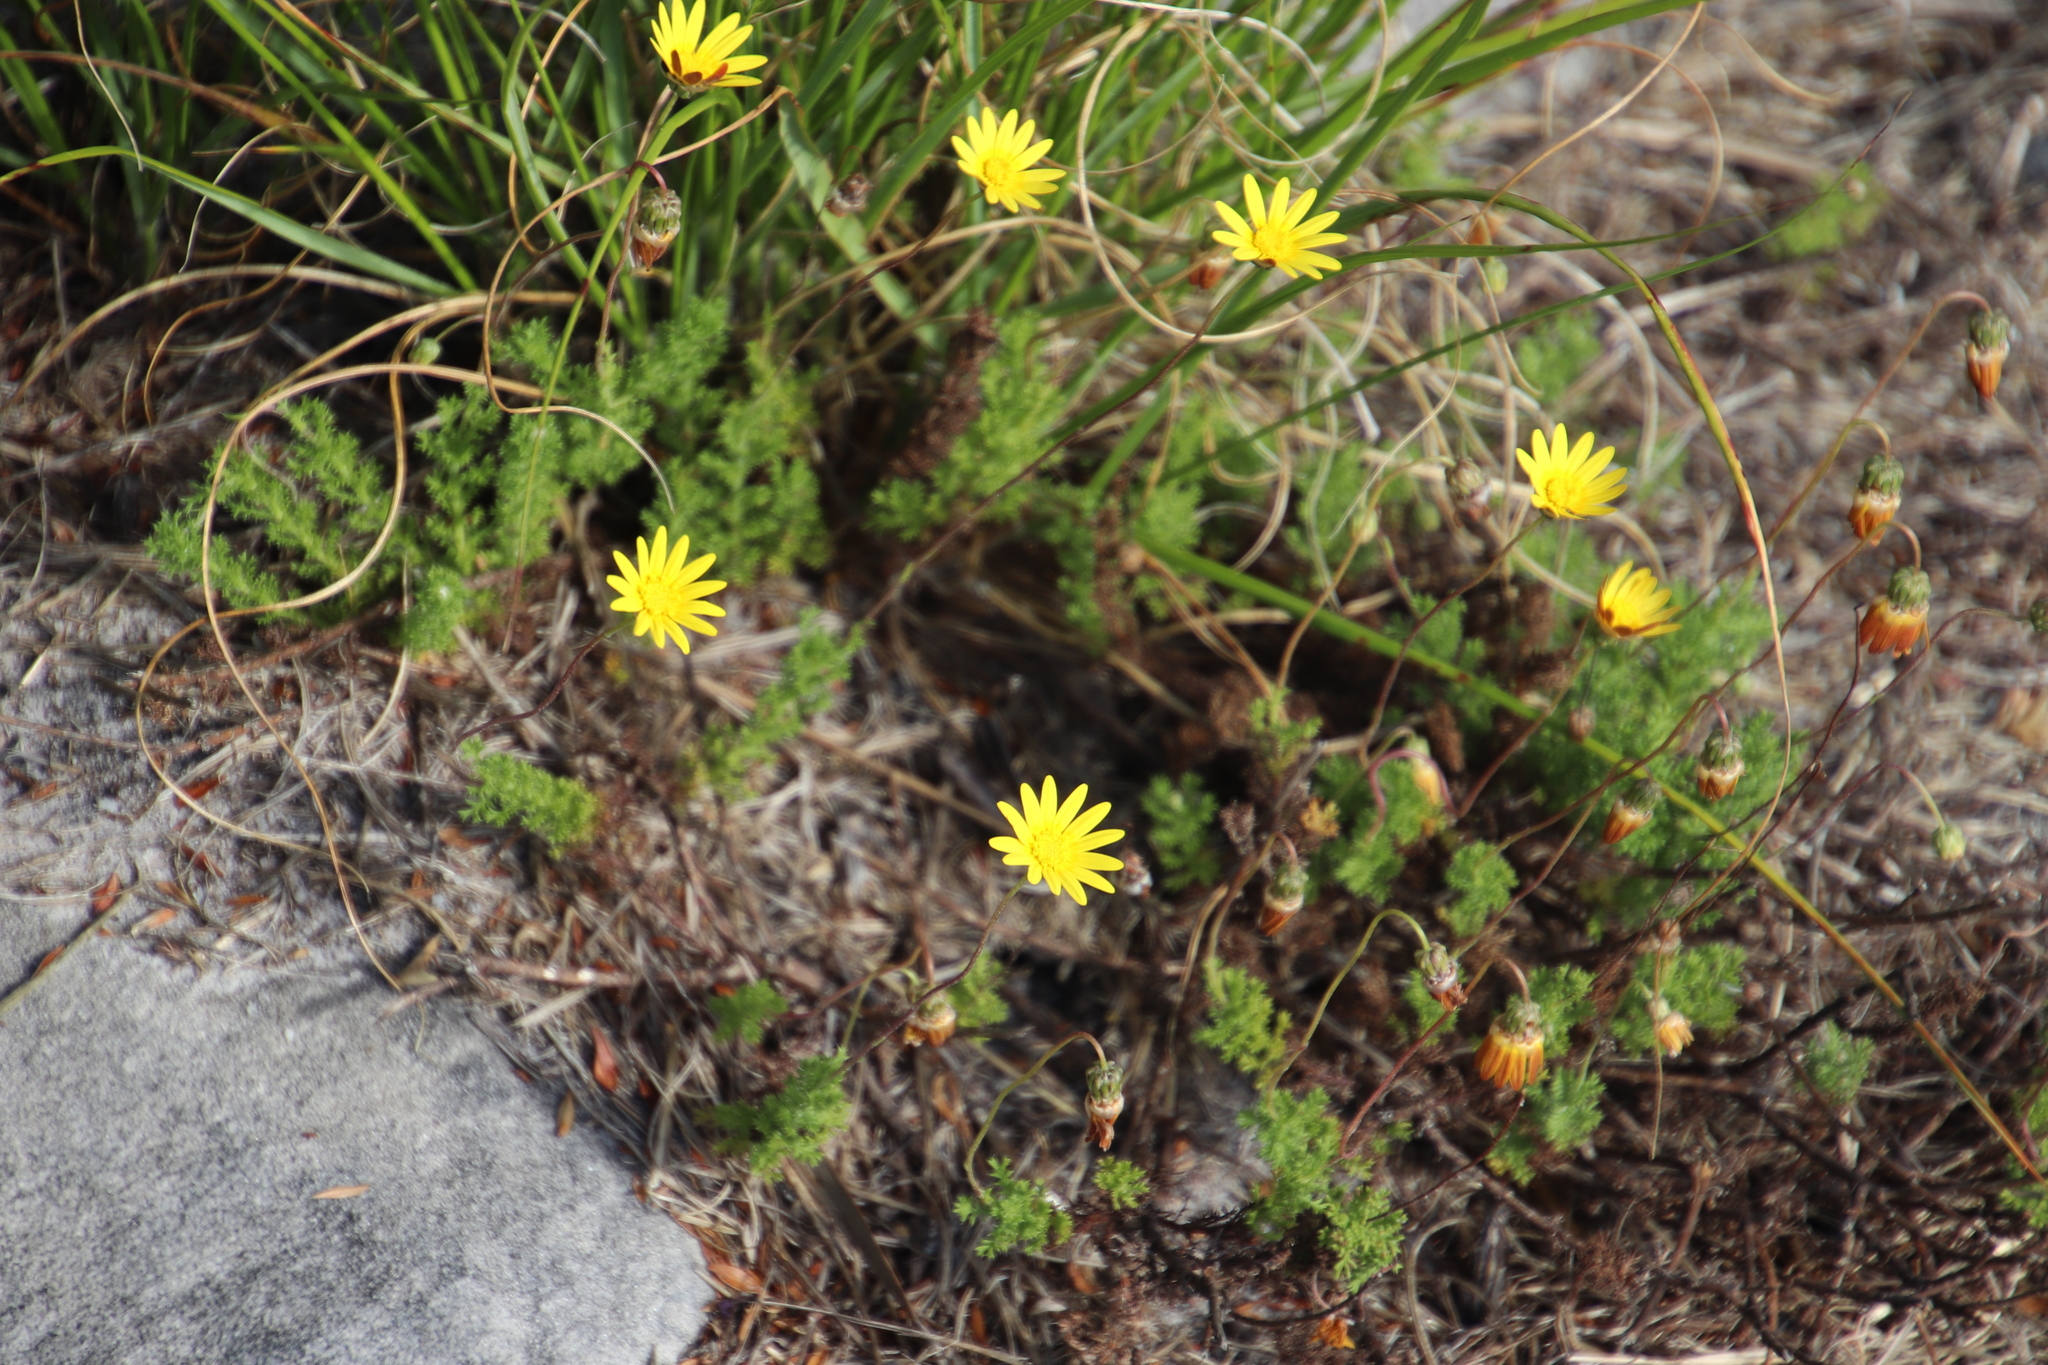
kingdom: Plantae
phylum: Tracheophyta
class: Magnoliopsida
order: Asterales
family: Asteraceae
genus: Ursinia
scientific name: Ursinia dentata
